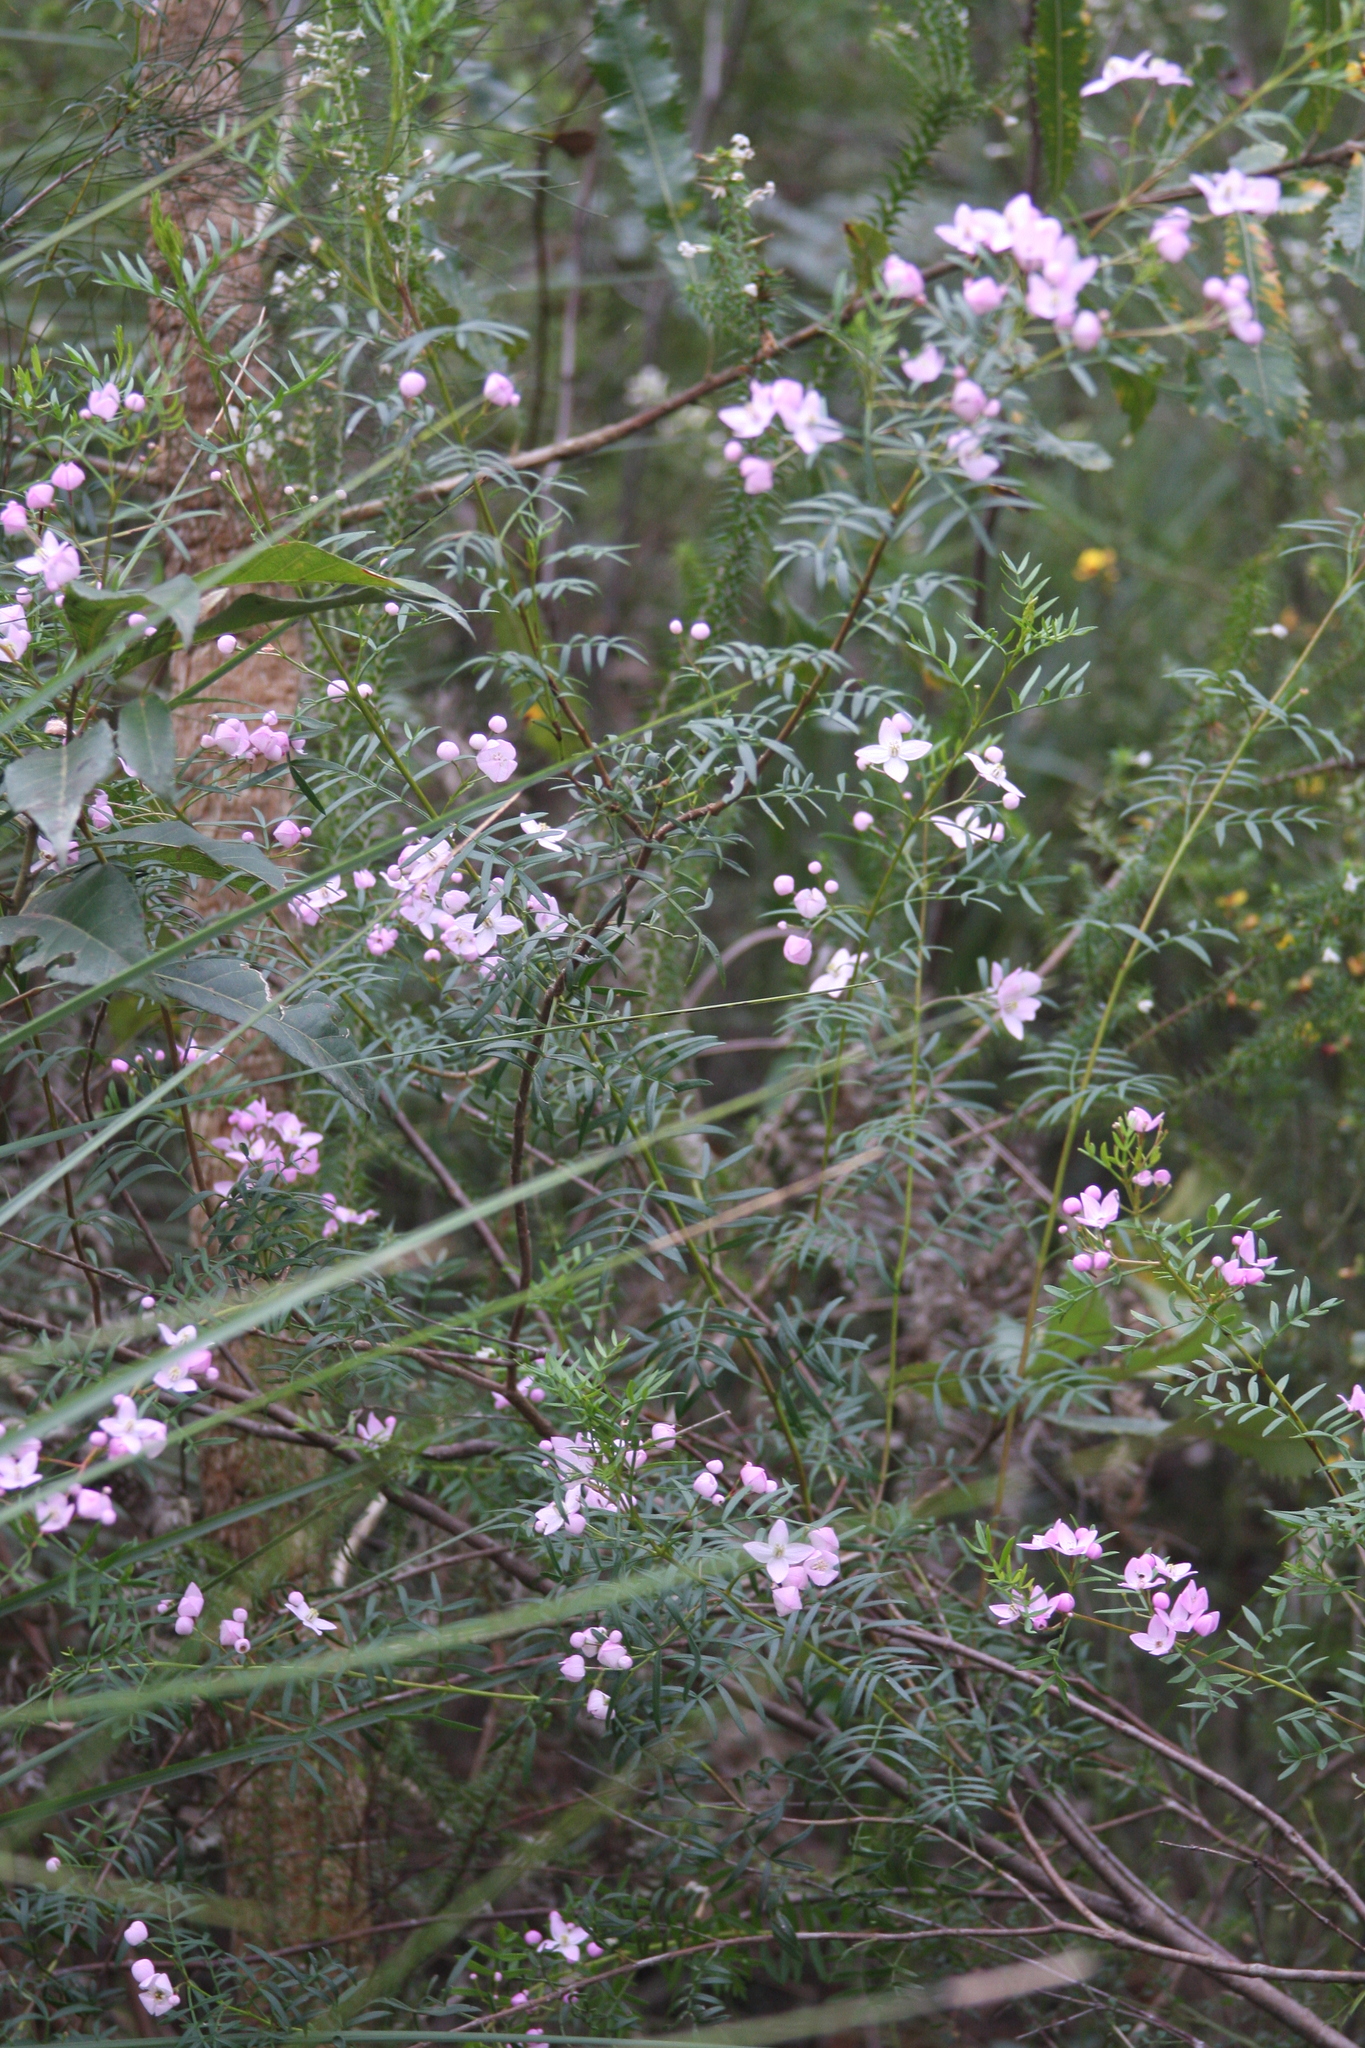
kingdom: Plantae
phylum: Tracheophyta
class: Magnoliopsida
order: Sapindales
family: Rutaceae
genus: Boronia
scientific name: Boronia pinnata
